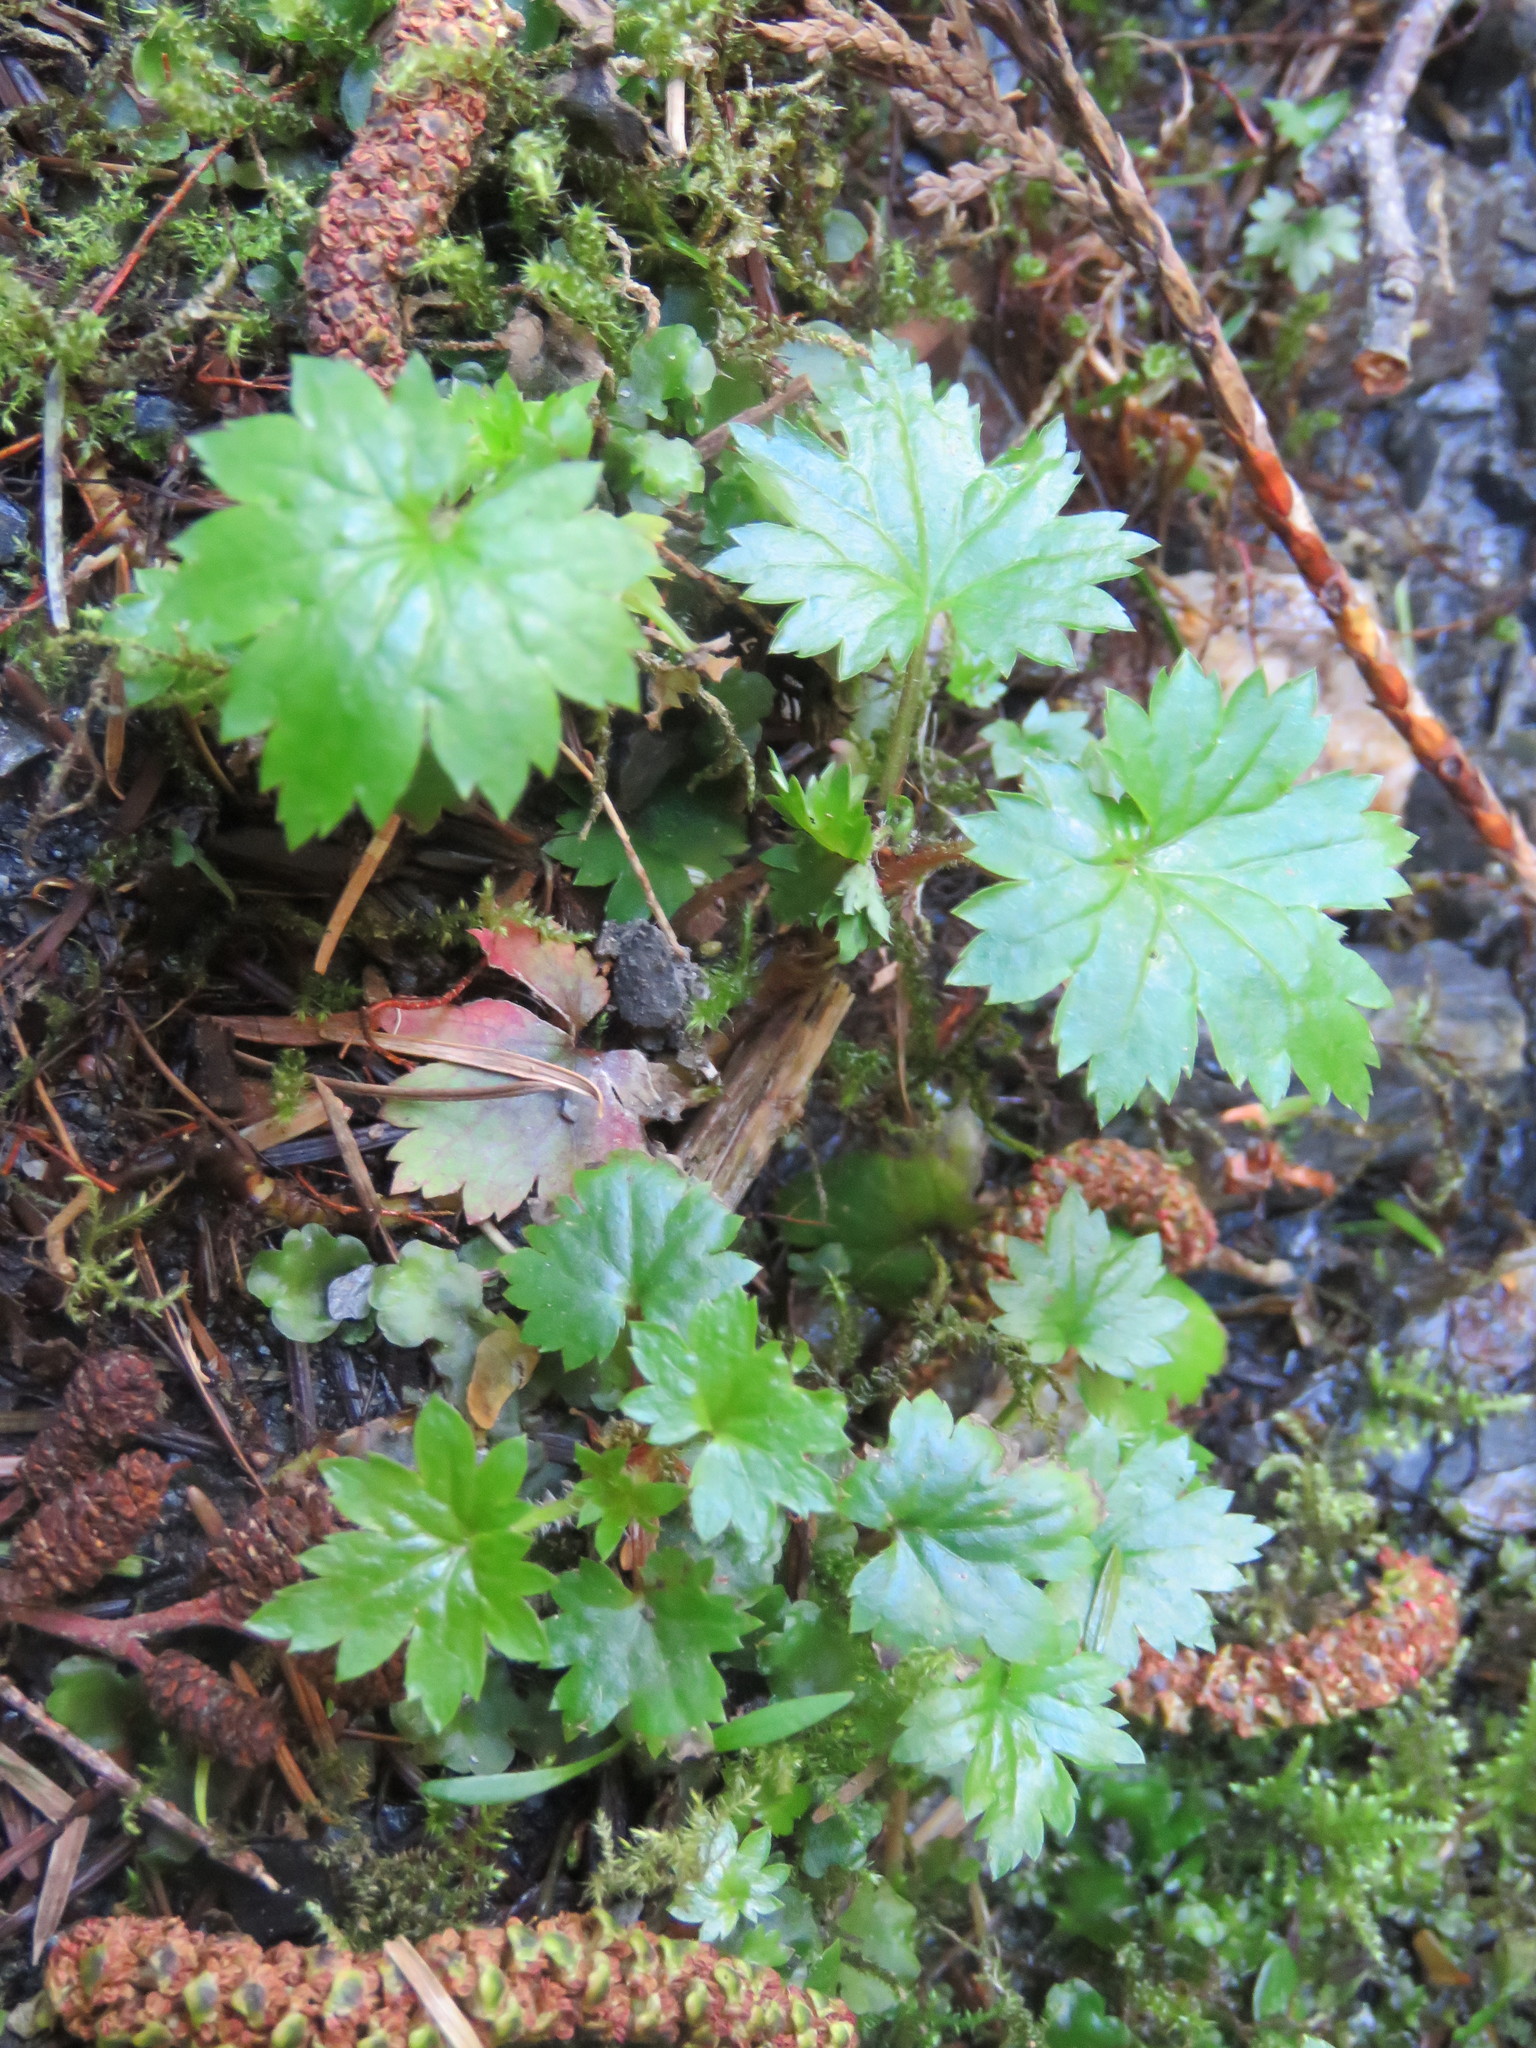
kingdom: Plantae
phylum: Tracheophyta
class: Magnoliopsida
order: Saxifragales
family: Saxifragaceae
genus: Boykinia
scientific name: Boykinia occidentalis
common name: Coast boykinia
